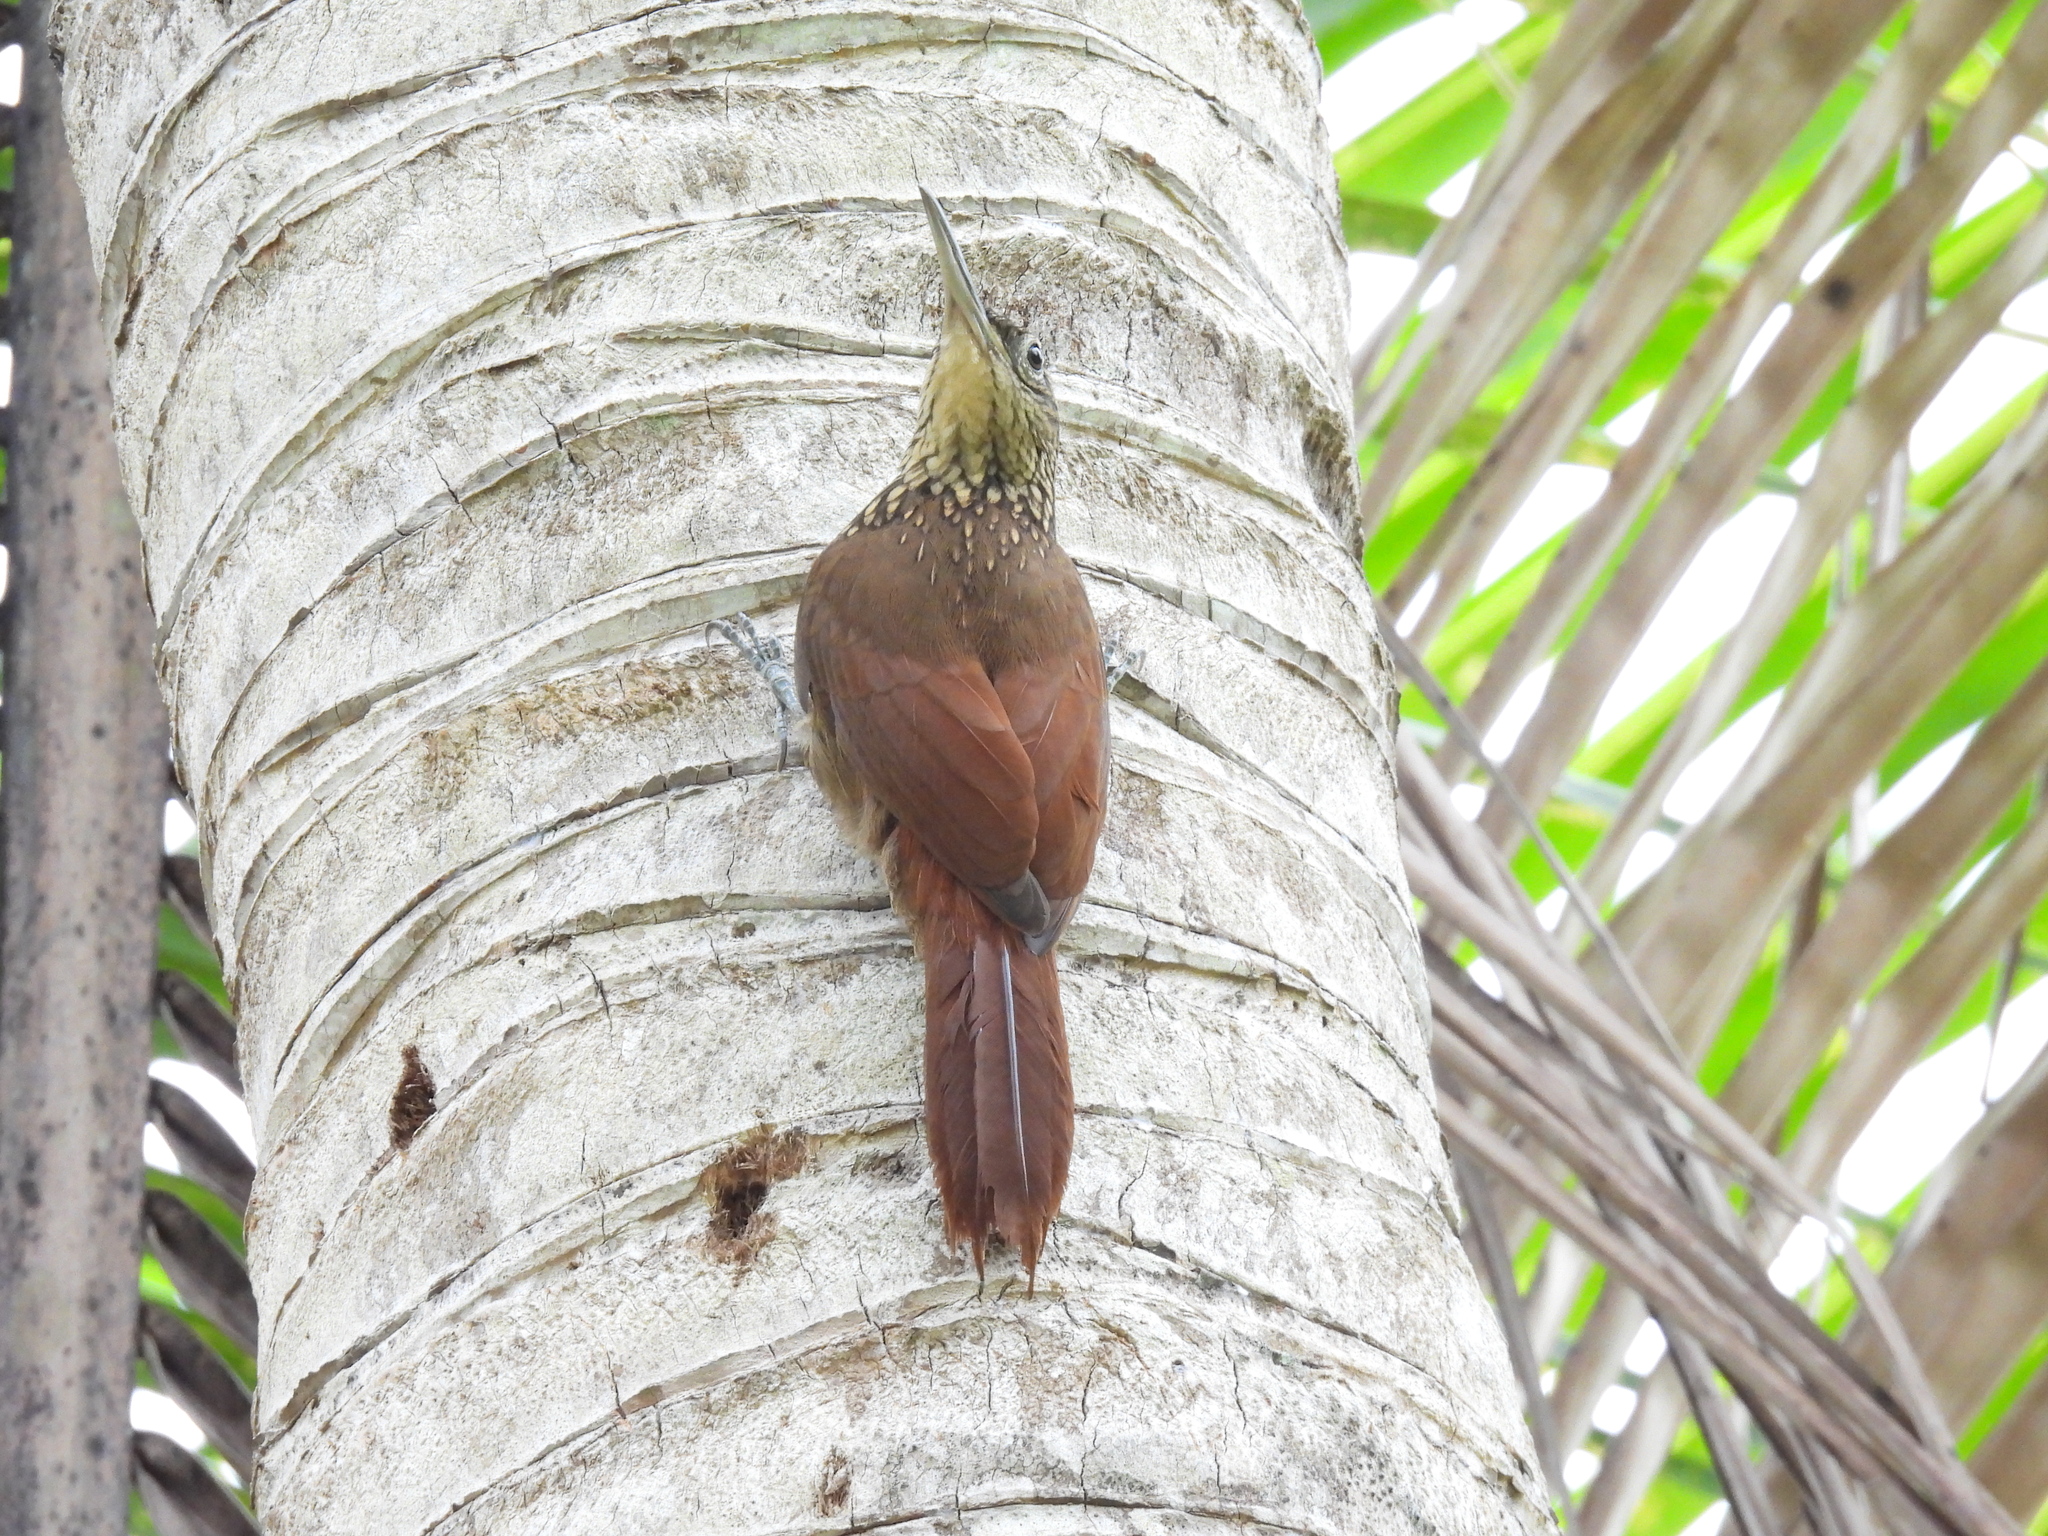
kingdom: Animalia
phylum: Chordata
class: Aves
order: Passeriformes
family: Furnariidae
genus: Xiphorhynchus
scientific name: Xiphorhynchus susurrans
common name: Cocoa woodcreeper
